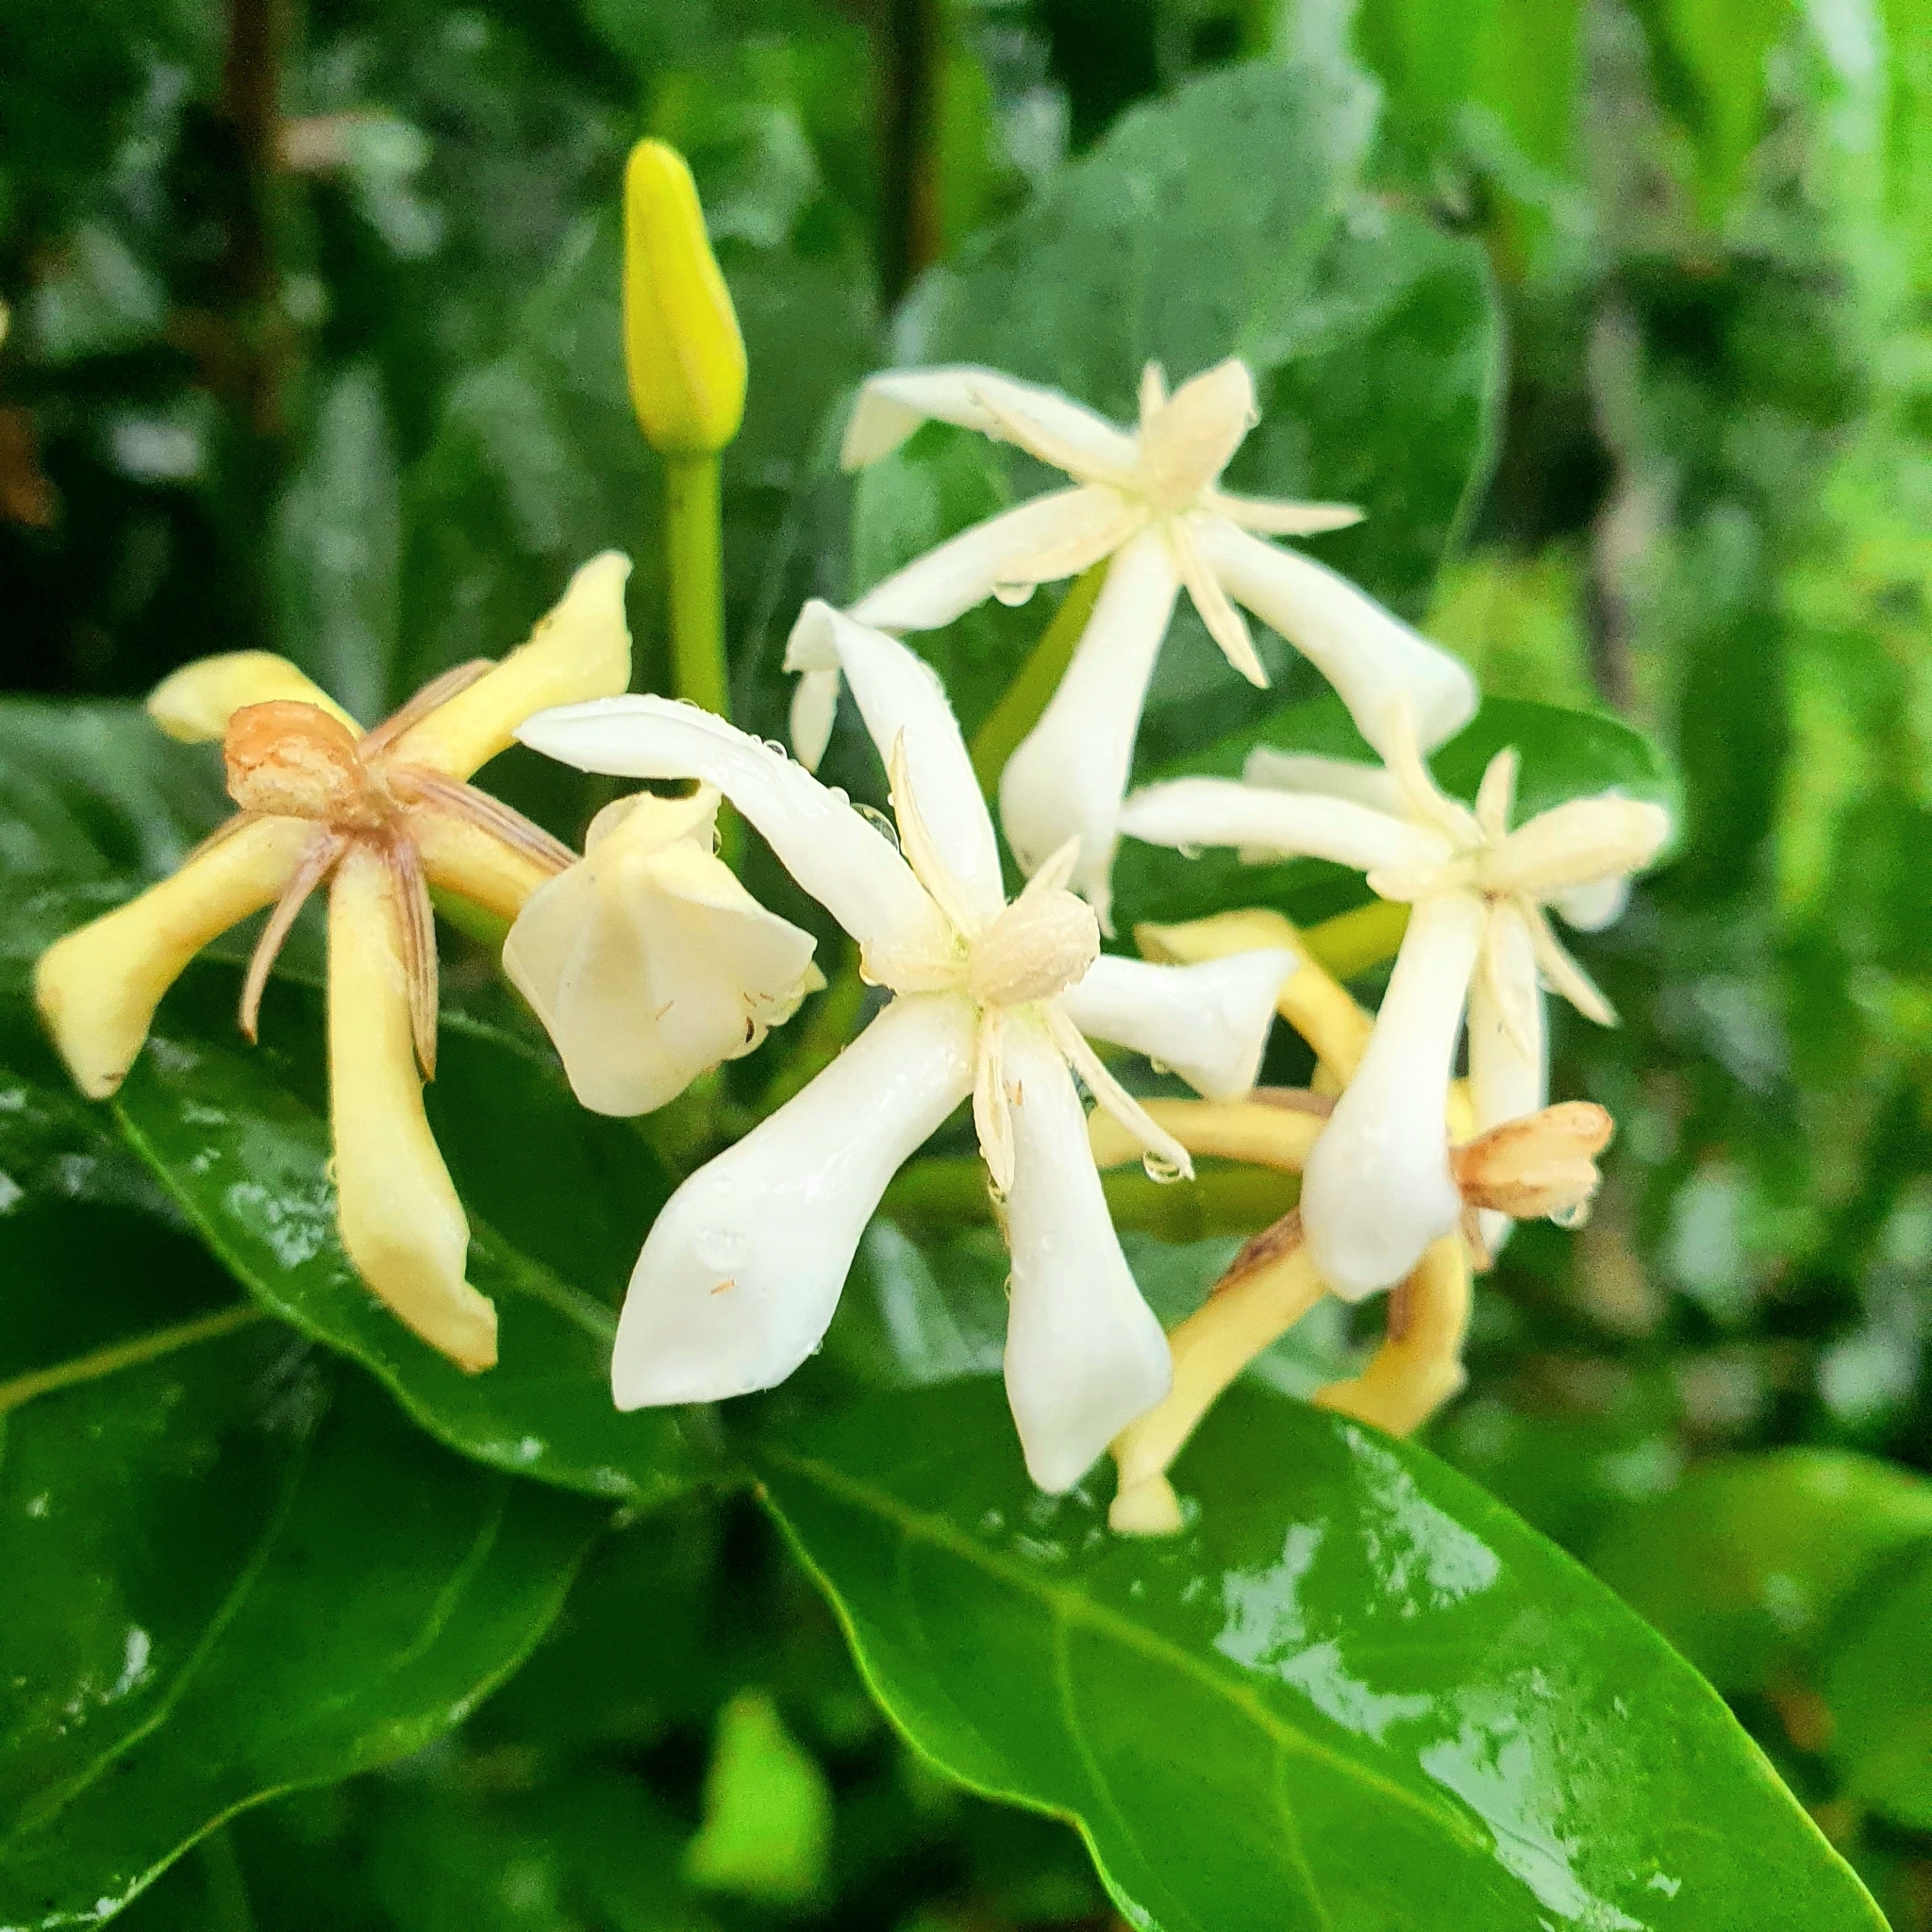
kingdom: Plantae
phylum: Tracheophyta
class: Magnoliopsida
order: Gentianales
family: Rubiaceae
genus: Oxyceros
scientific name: Oxyceros longiflorus
